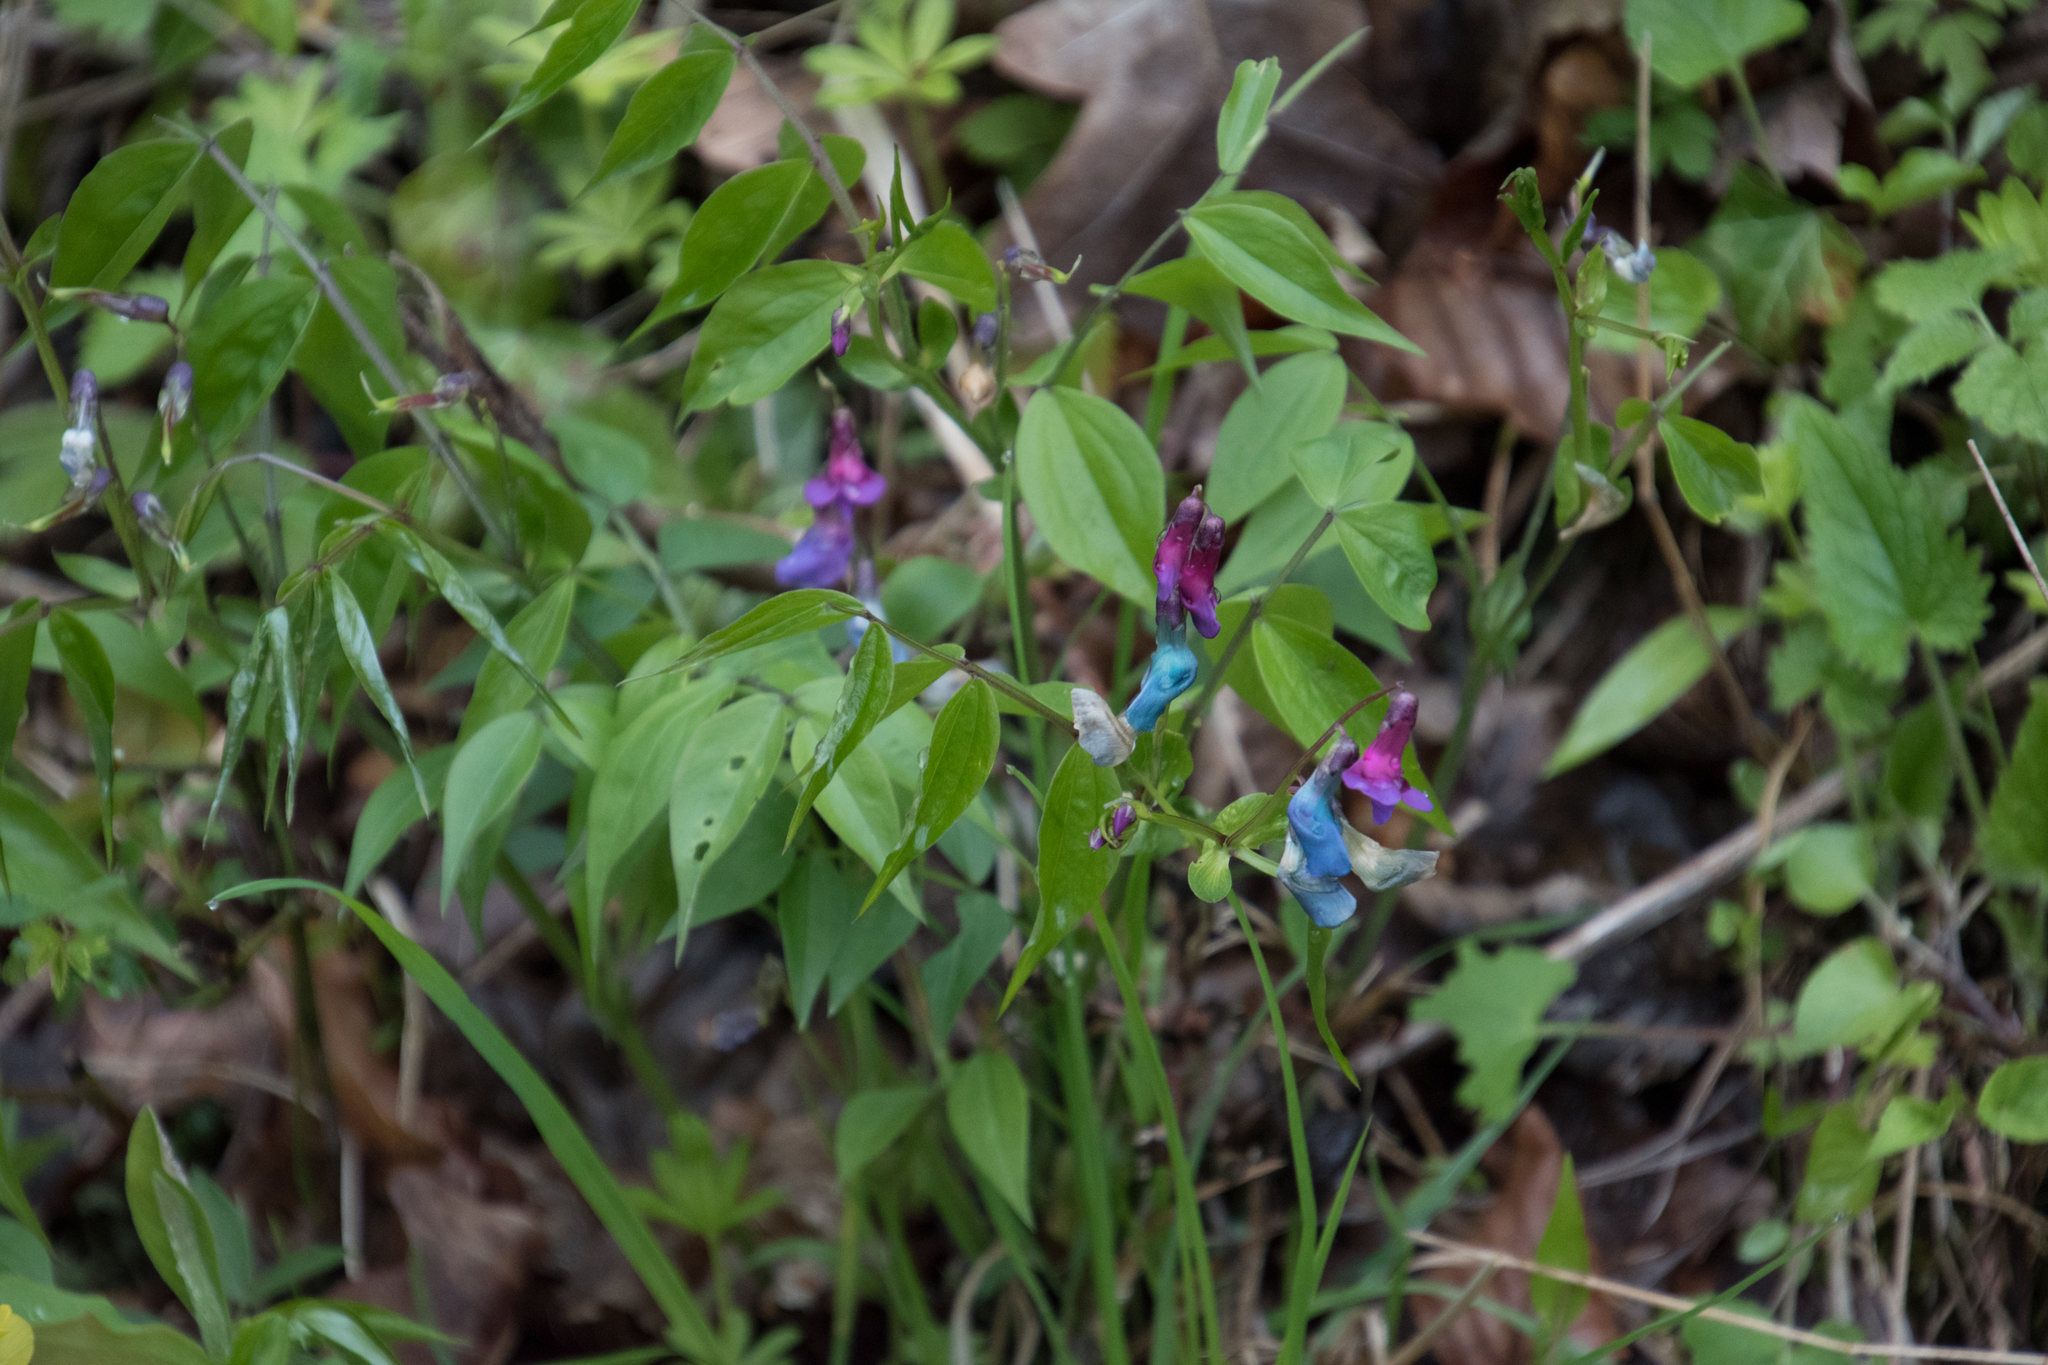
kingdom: Plantae
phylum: Tracheophyta
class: Magnoliopsida
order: Fabales
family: Fabaceae
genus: Lathyrus
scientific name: Lathyrus vernus
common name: Spring pea
